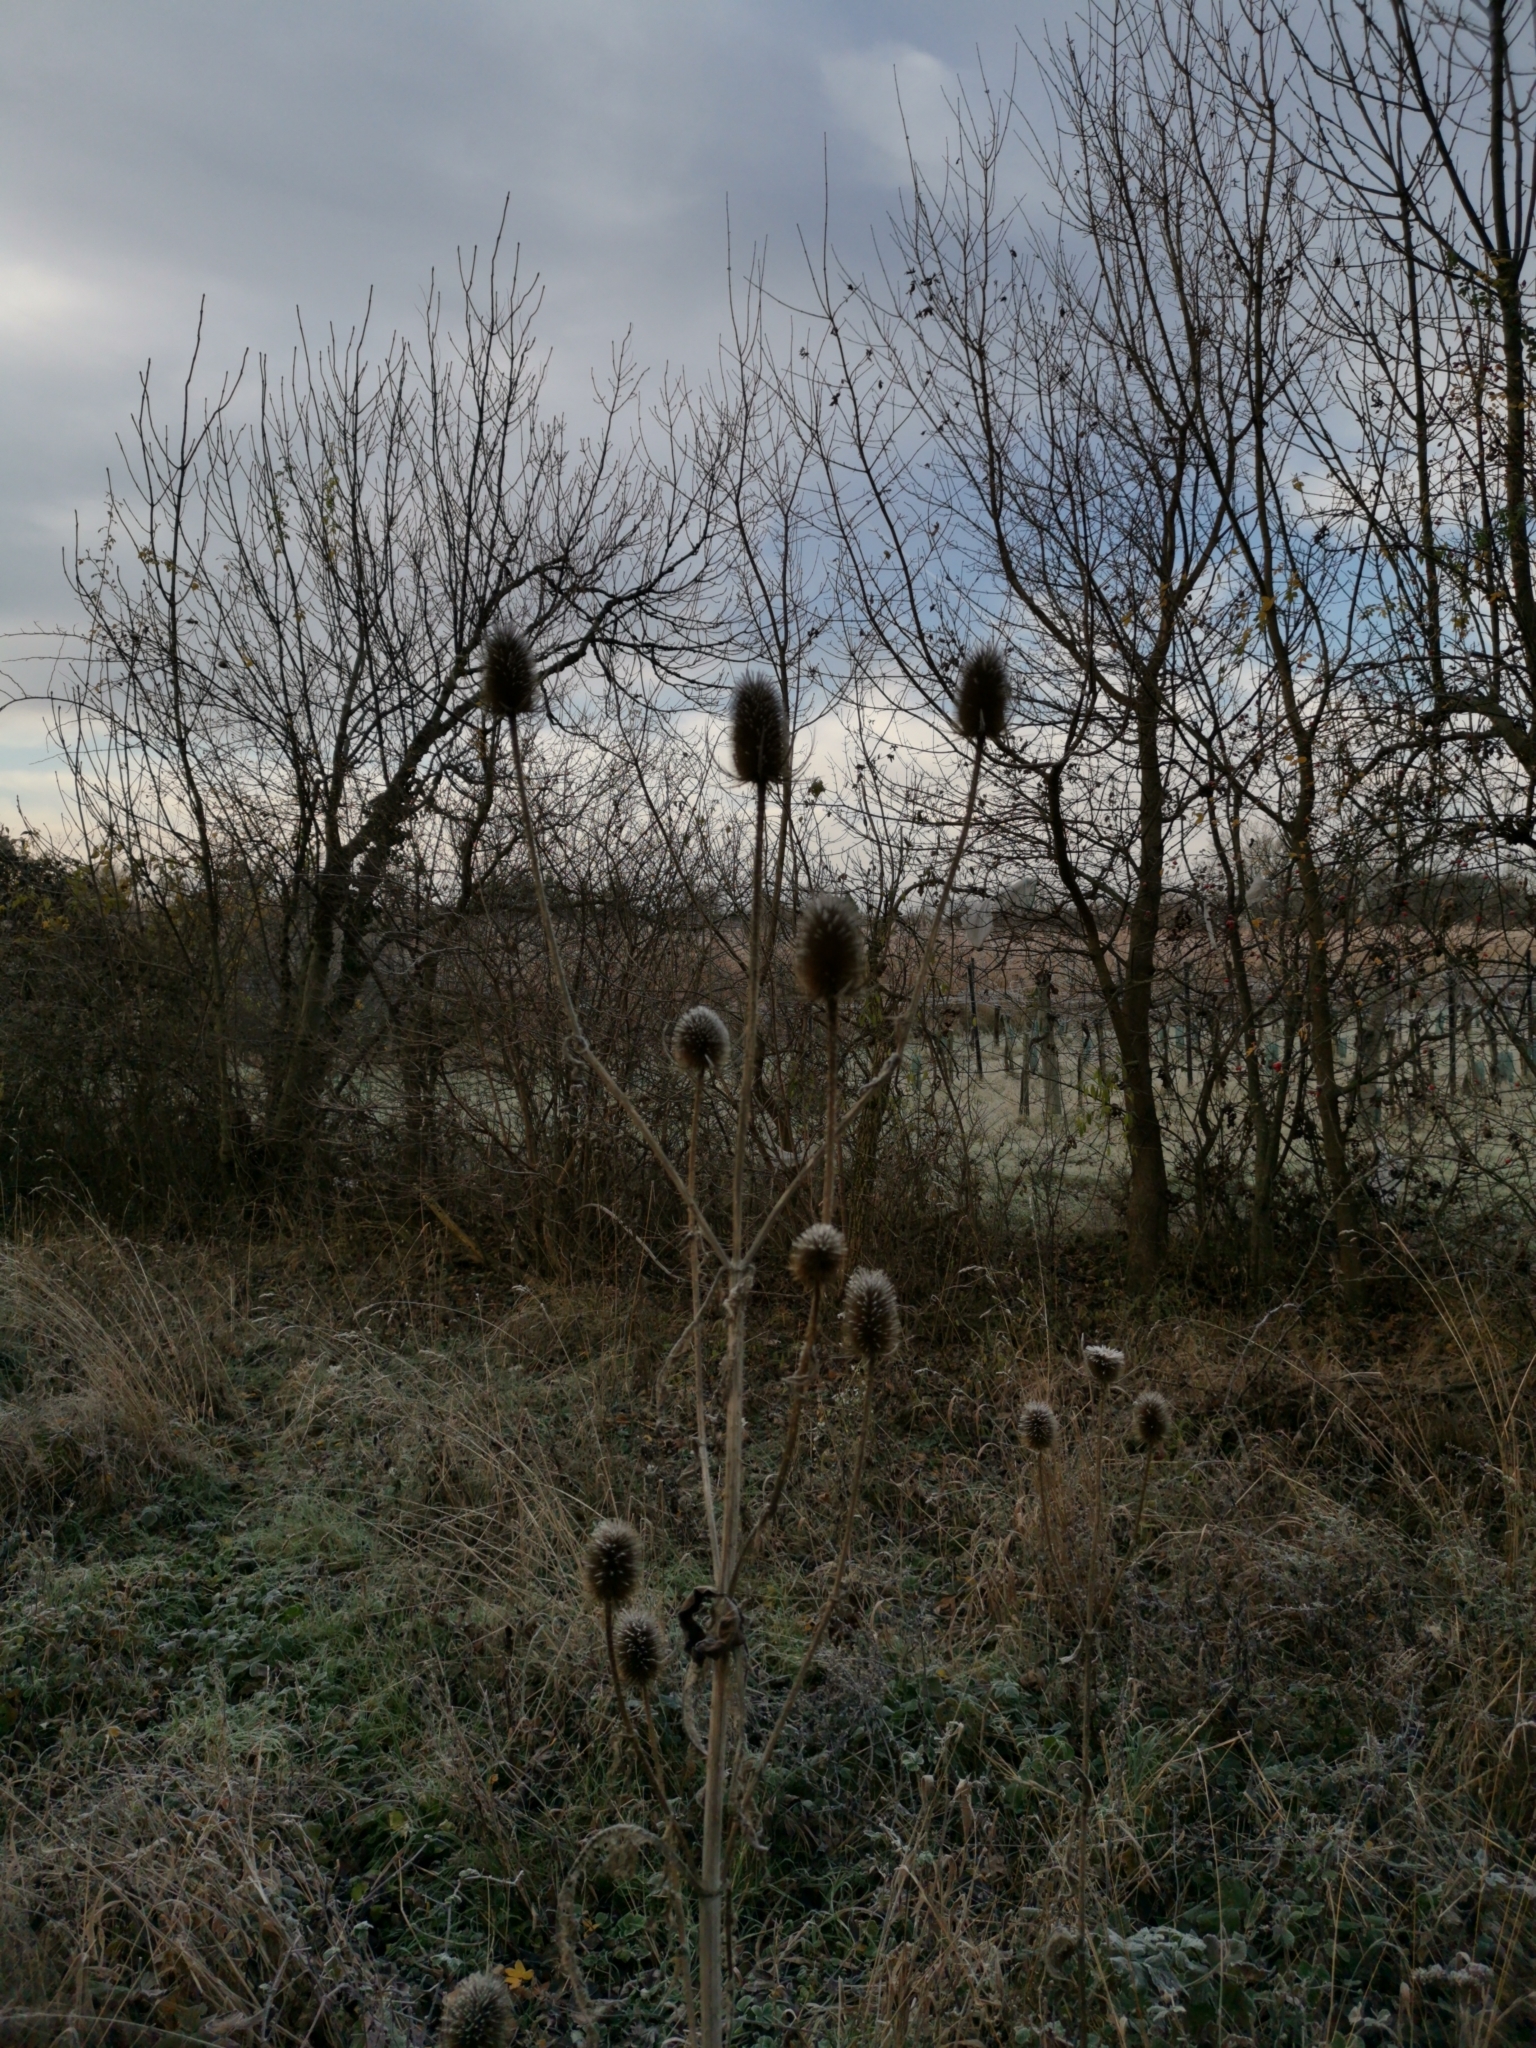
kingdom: Plantae
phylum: Tracheophyta
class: Magnoliopsida
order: Dipsacales
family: Caprifoliaceae
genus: Dipsacus
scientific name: Dipsacus fullonum
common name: Teasel
